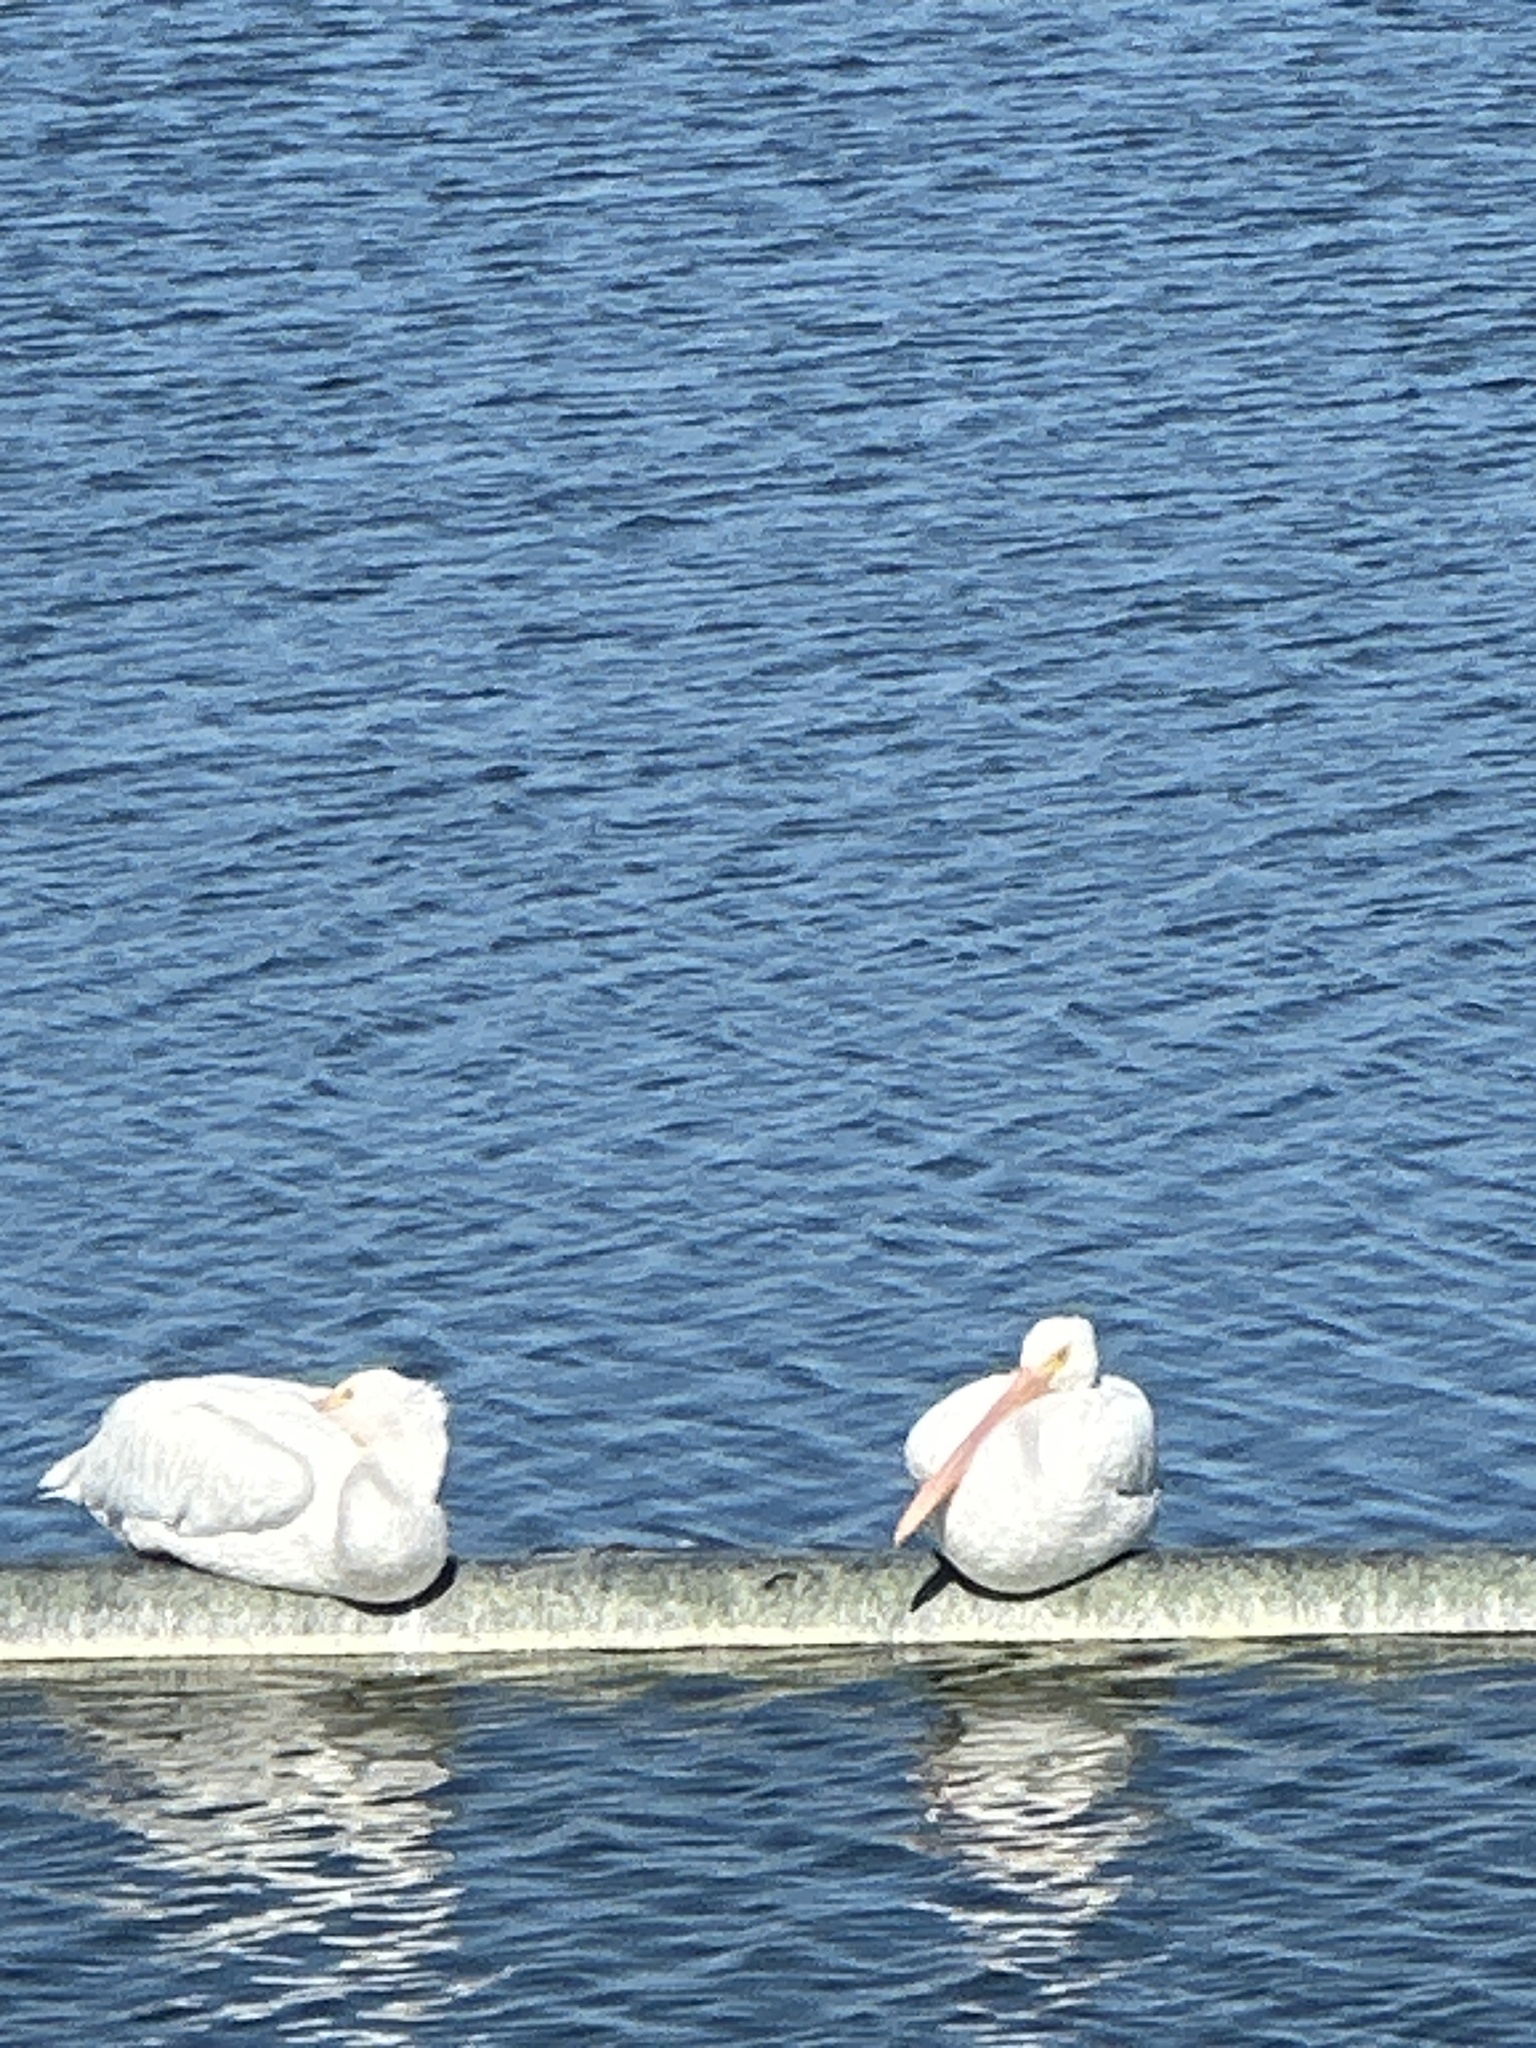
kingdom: Animalia
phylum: Chordata
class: Aves
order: Pelecaniformes
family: Pelecanidae
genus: Pelecanus
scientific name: Pelecanus erythrorhynchos
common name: American white pelican
